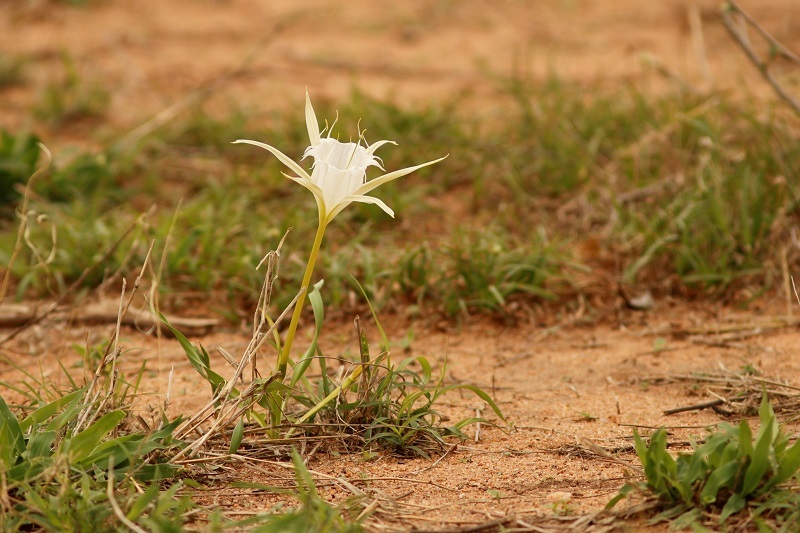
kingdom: Plantae
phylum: Tracheophyta
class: Liliopsida
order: Asparagales
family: Amaryllidaceae
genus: Pancratium
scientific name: Pancratium tenuifolium
